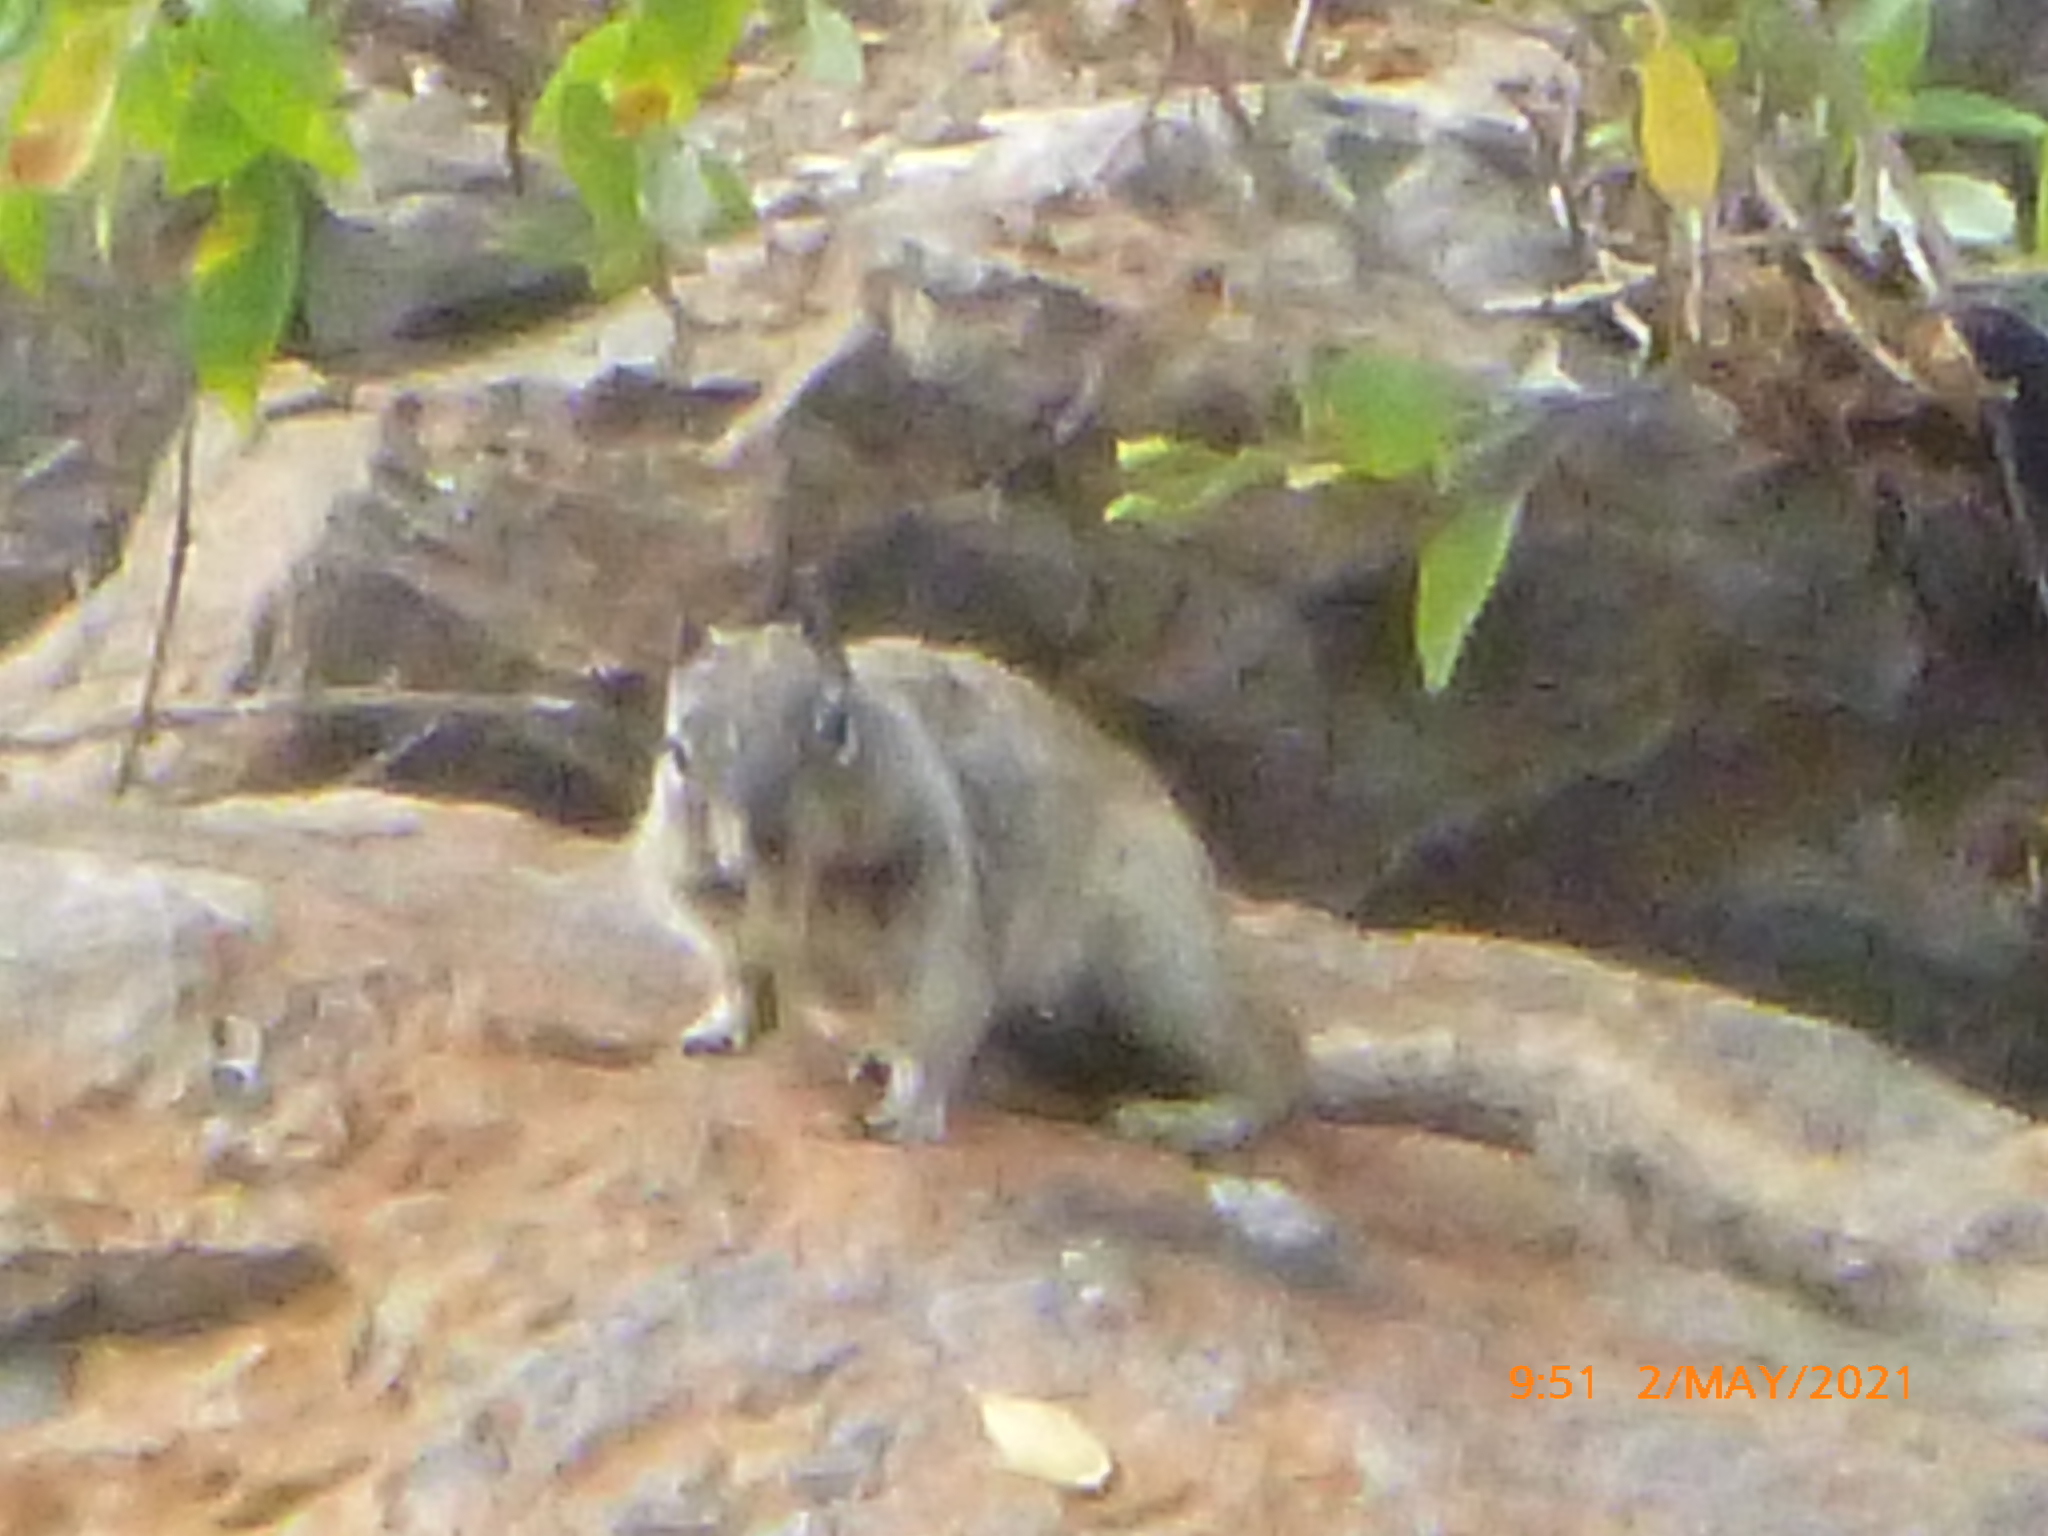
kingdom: Animalia
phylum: Chordata
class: Mammalia
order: Rodentia
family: Sciuridae
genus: Otospermophilus
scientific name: Otospermophilus beecheyi
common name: California ground squirrel
